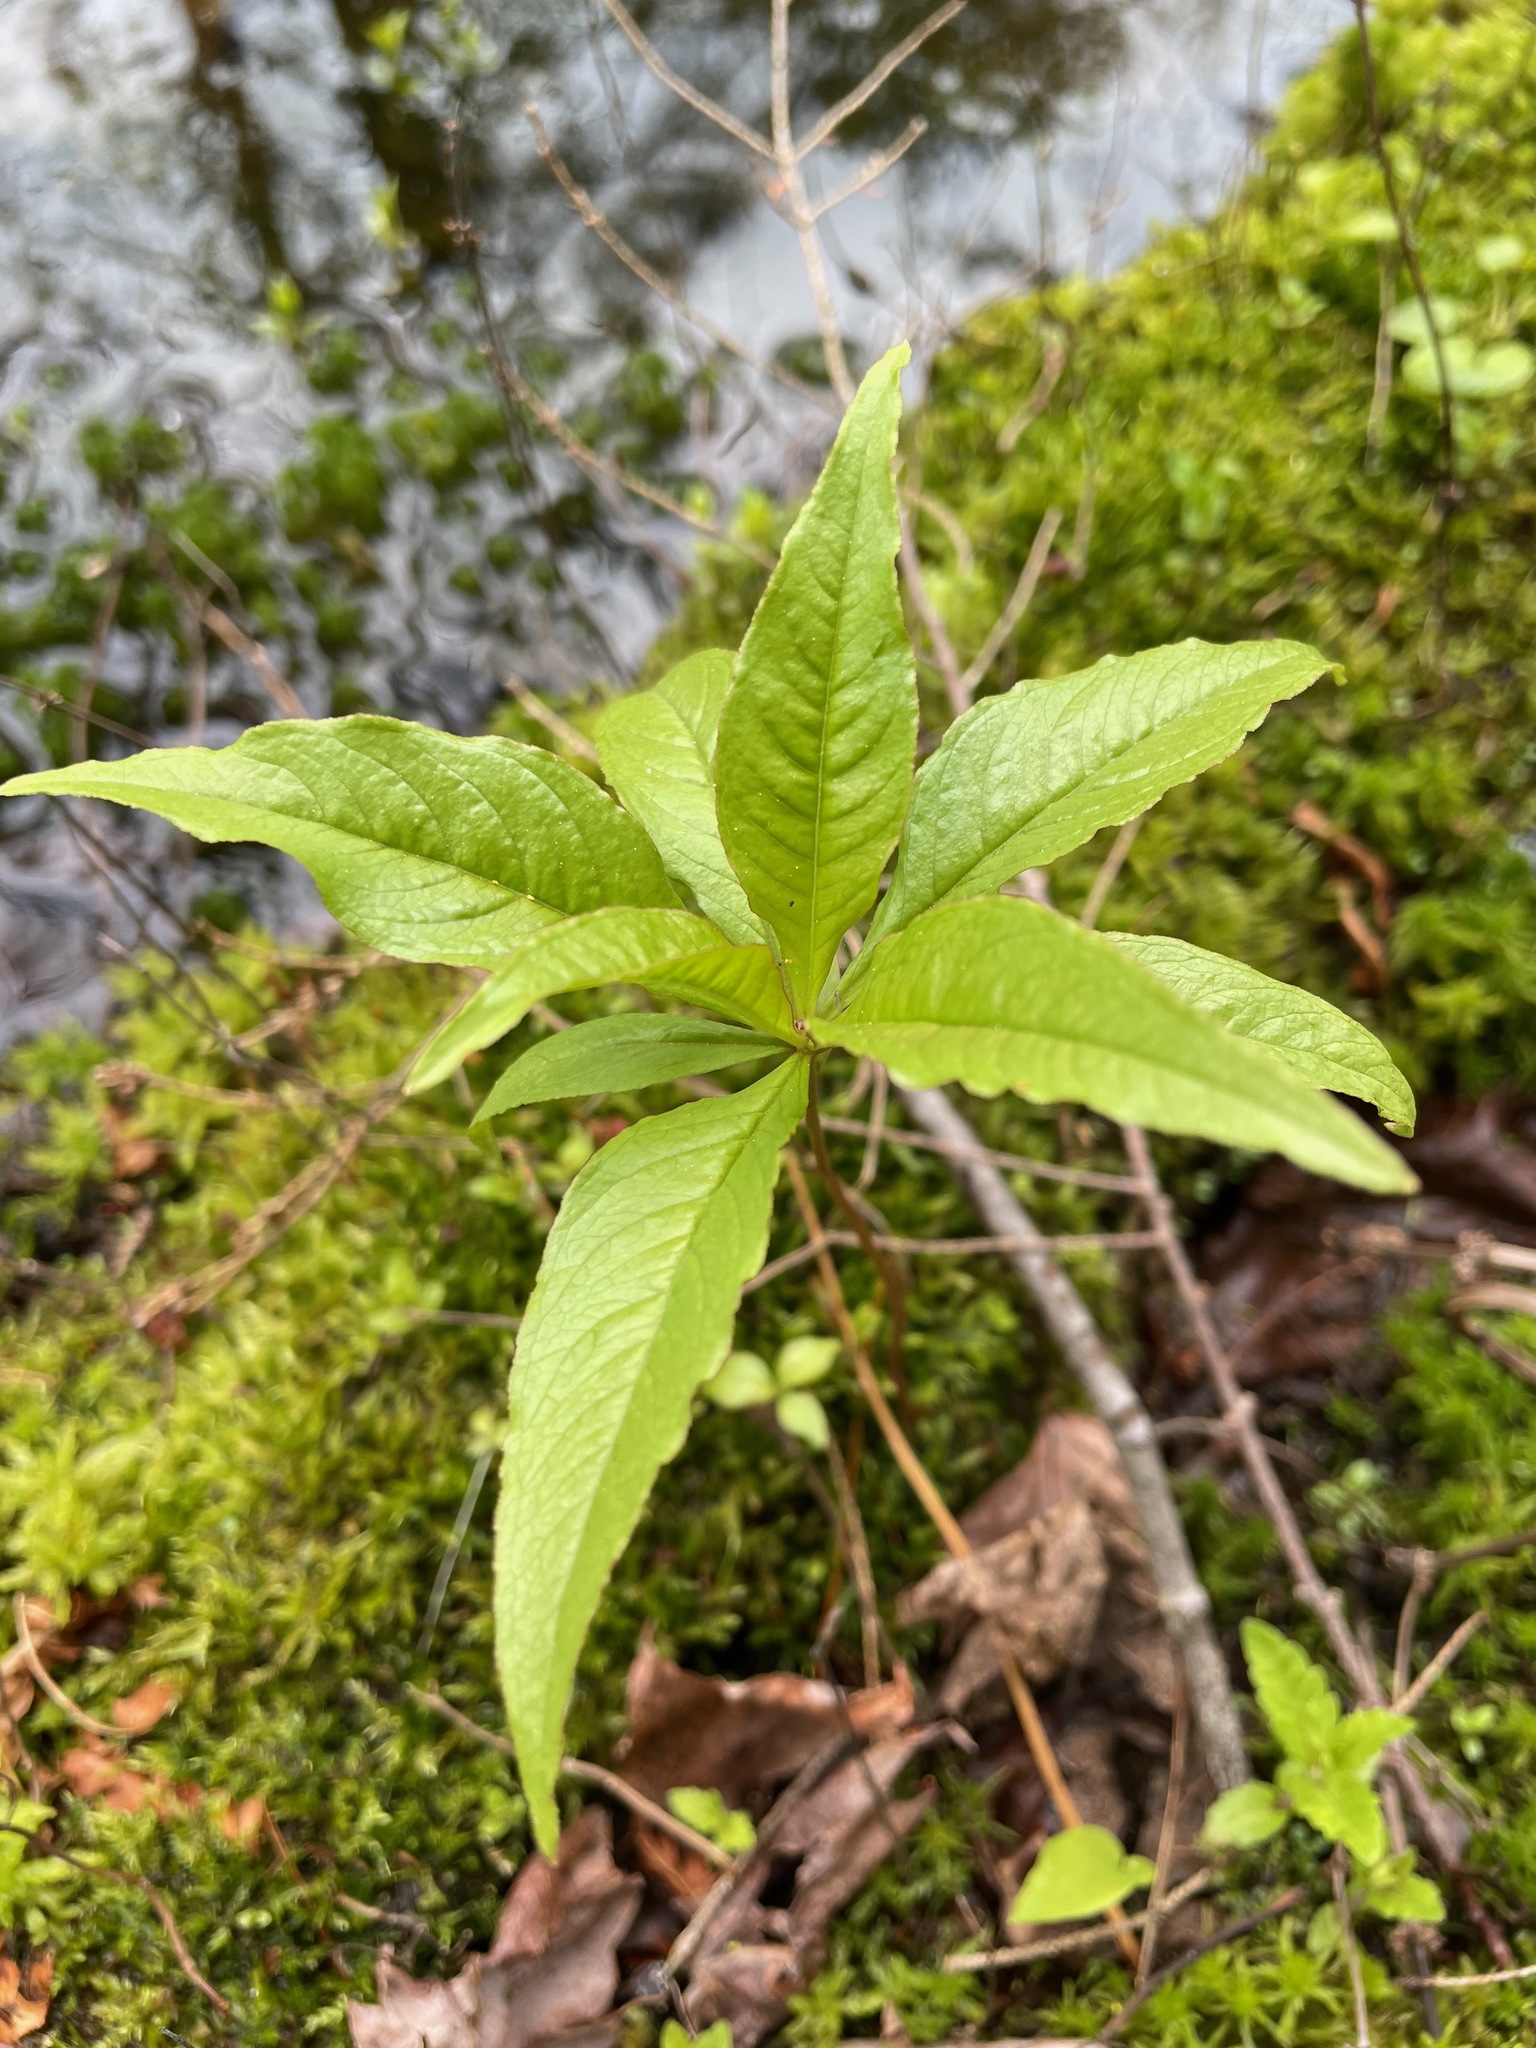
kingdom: Plantae
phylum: Tracheophyta
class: Magnoliopsida
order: Ericales
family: Primulaceae
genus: Lysimachia
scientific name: Lysimachia borealis
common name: American starflower
